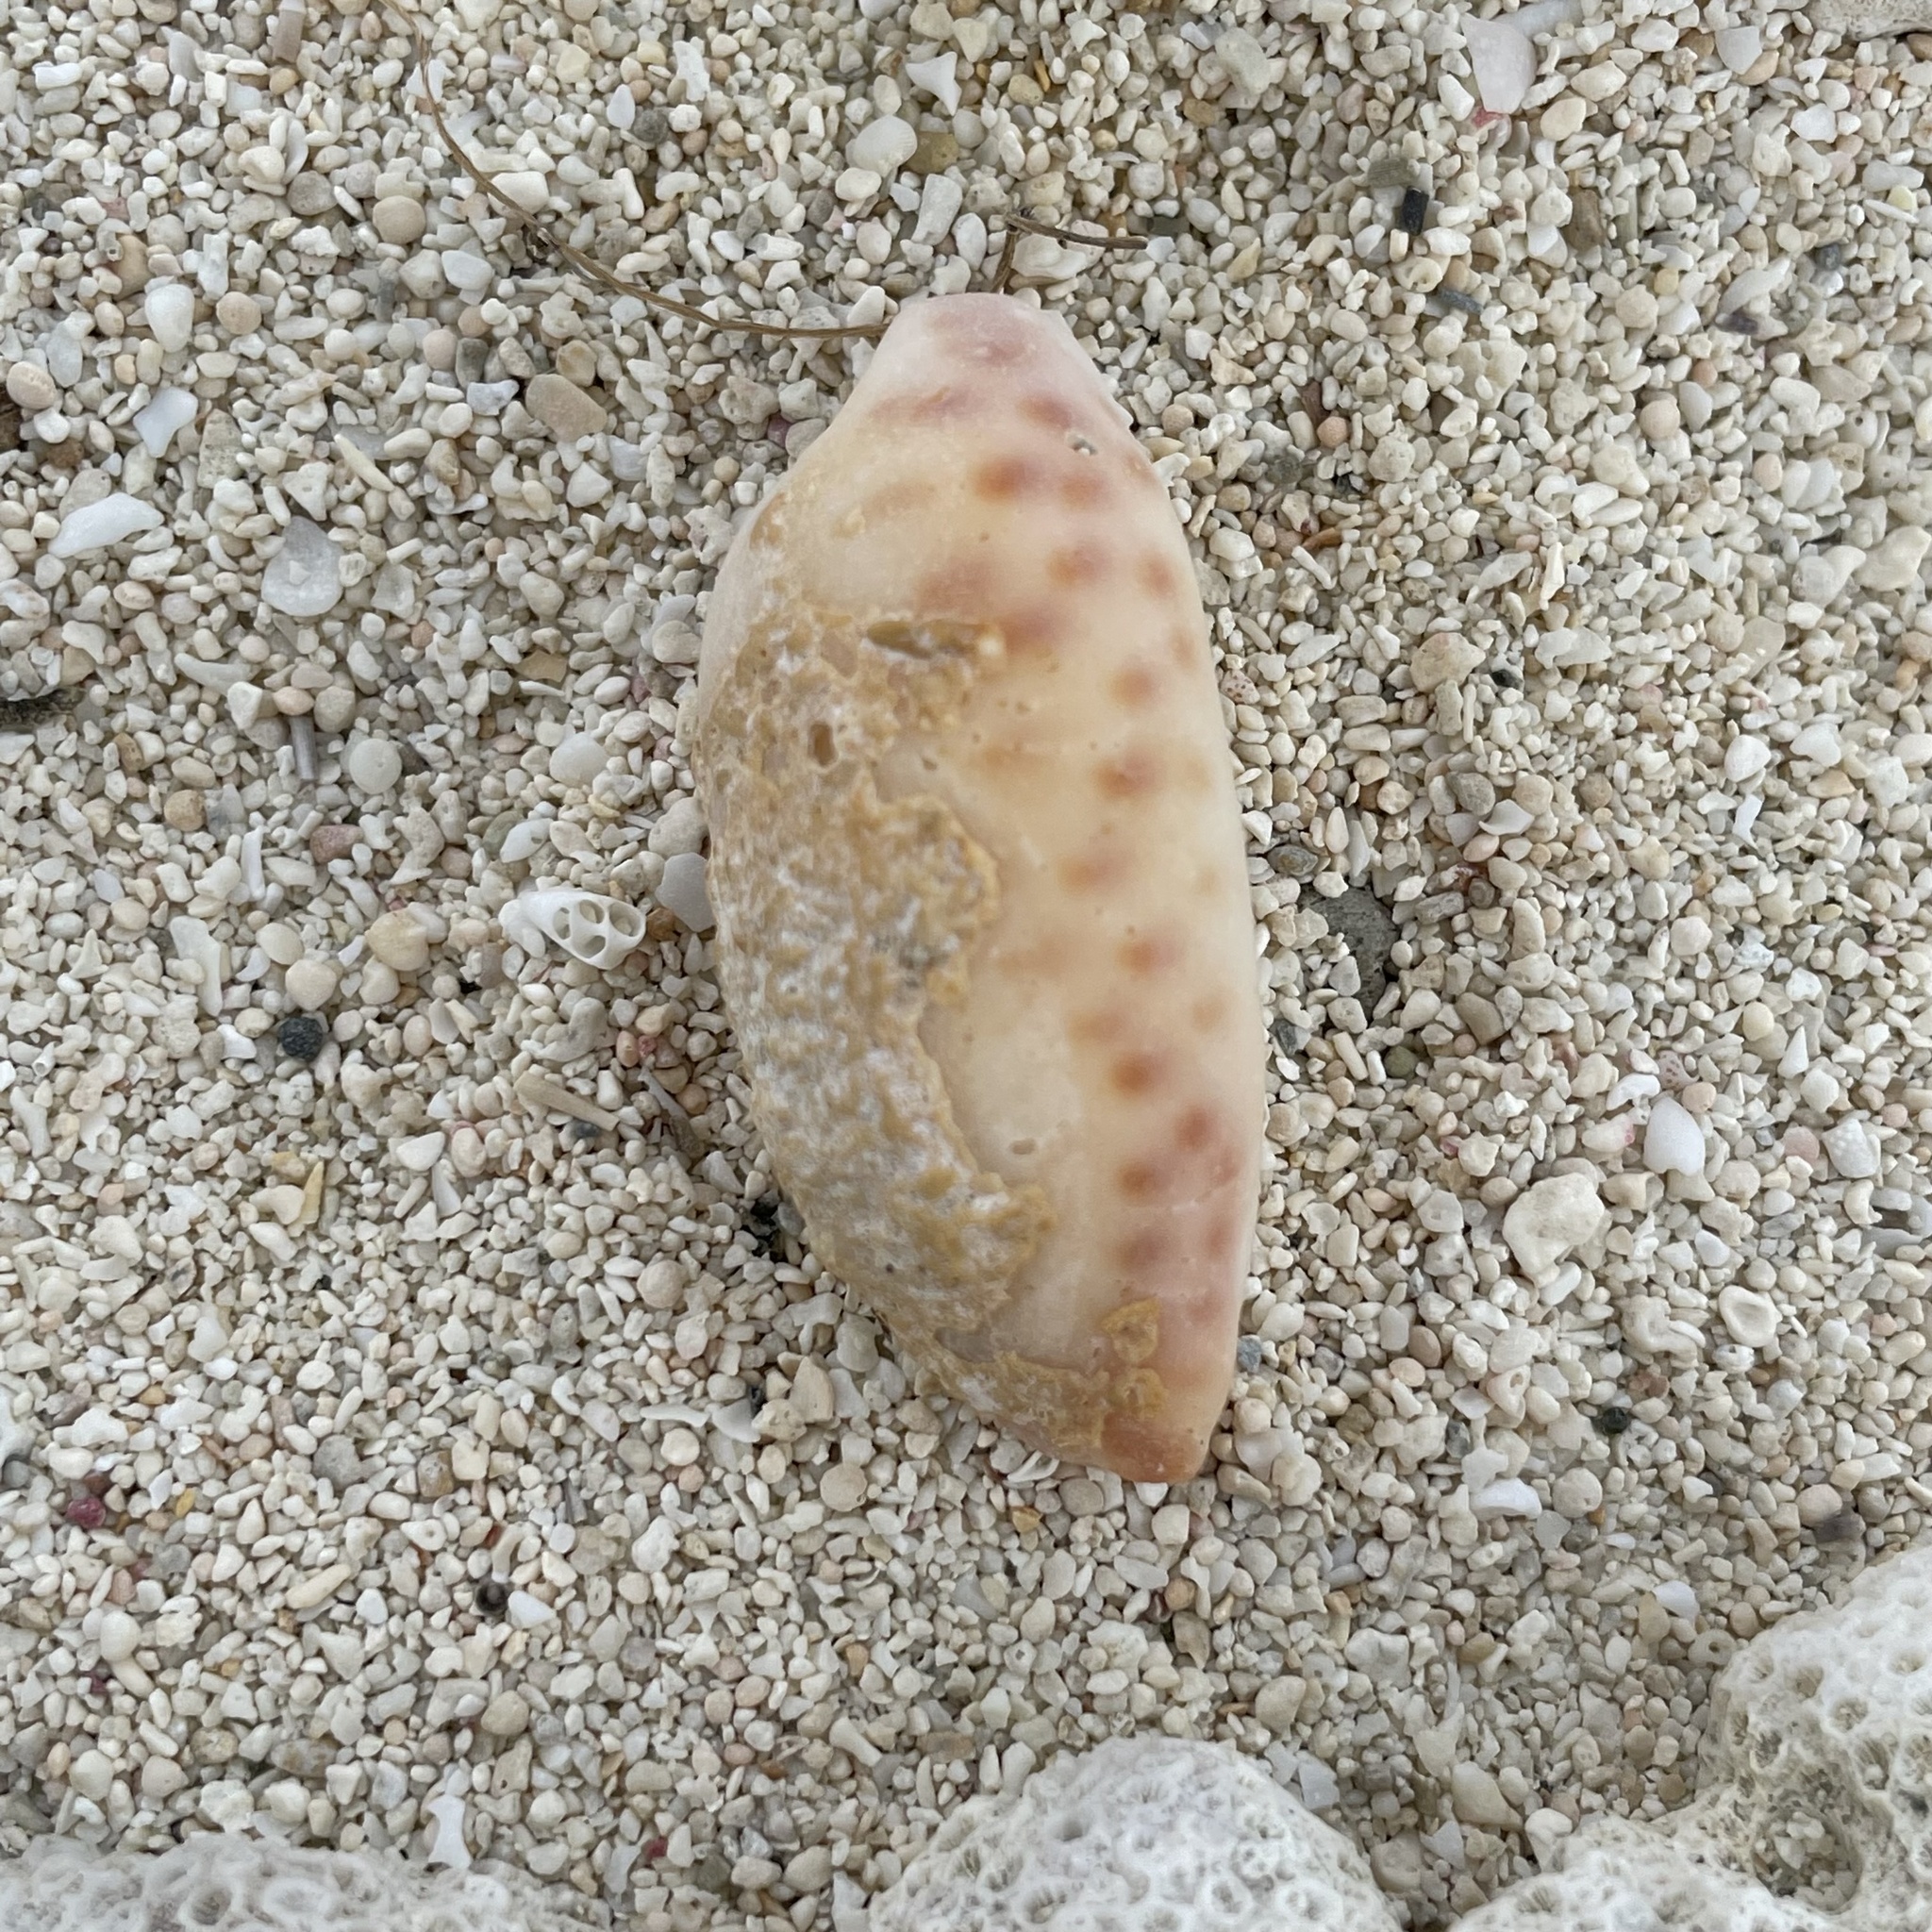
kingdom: Animalia
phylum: Mollusca
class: Gastropoda
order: Littorinimorpha
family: Cypraeidae
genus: Mauritia
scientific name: Mauritia scurra
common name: Jester cowrie
